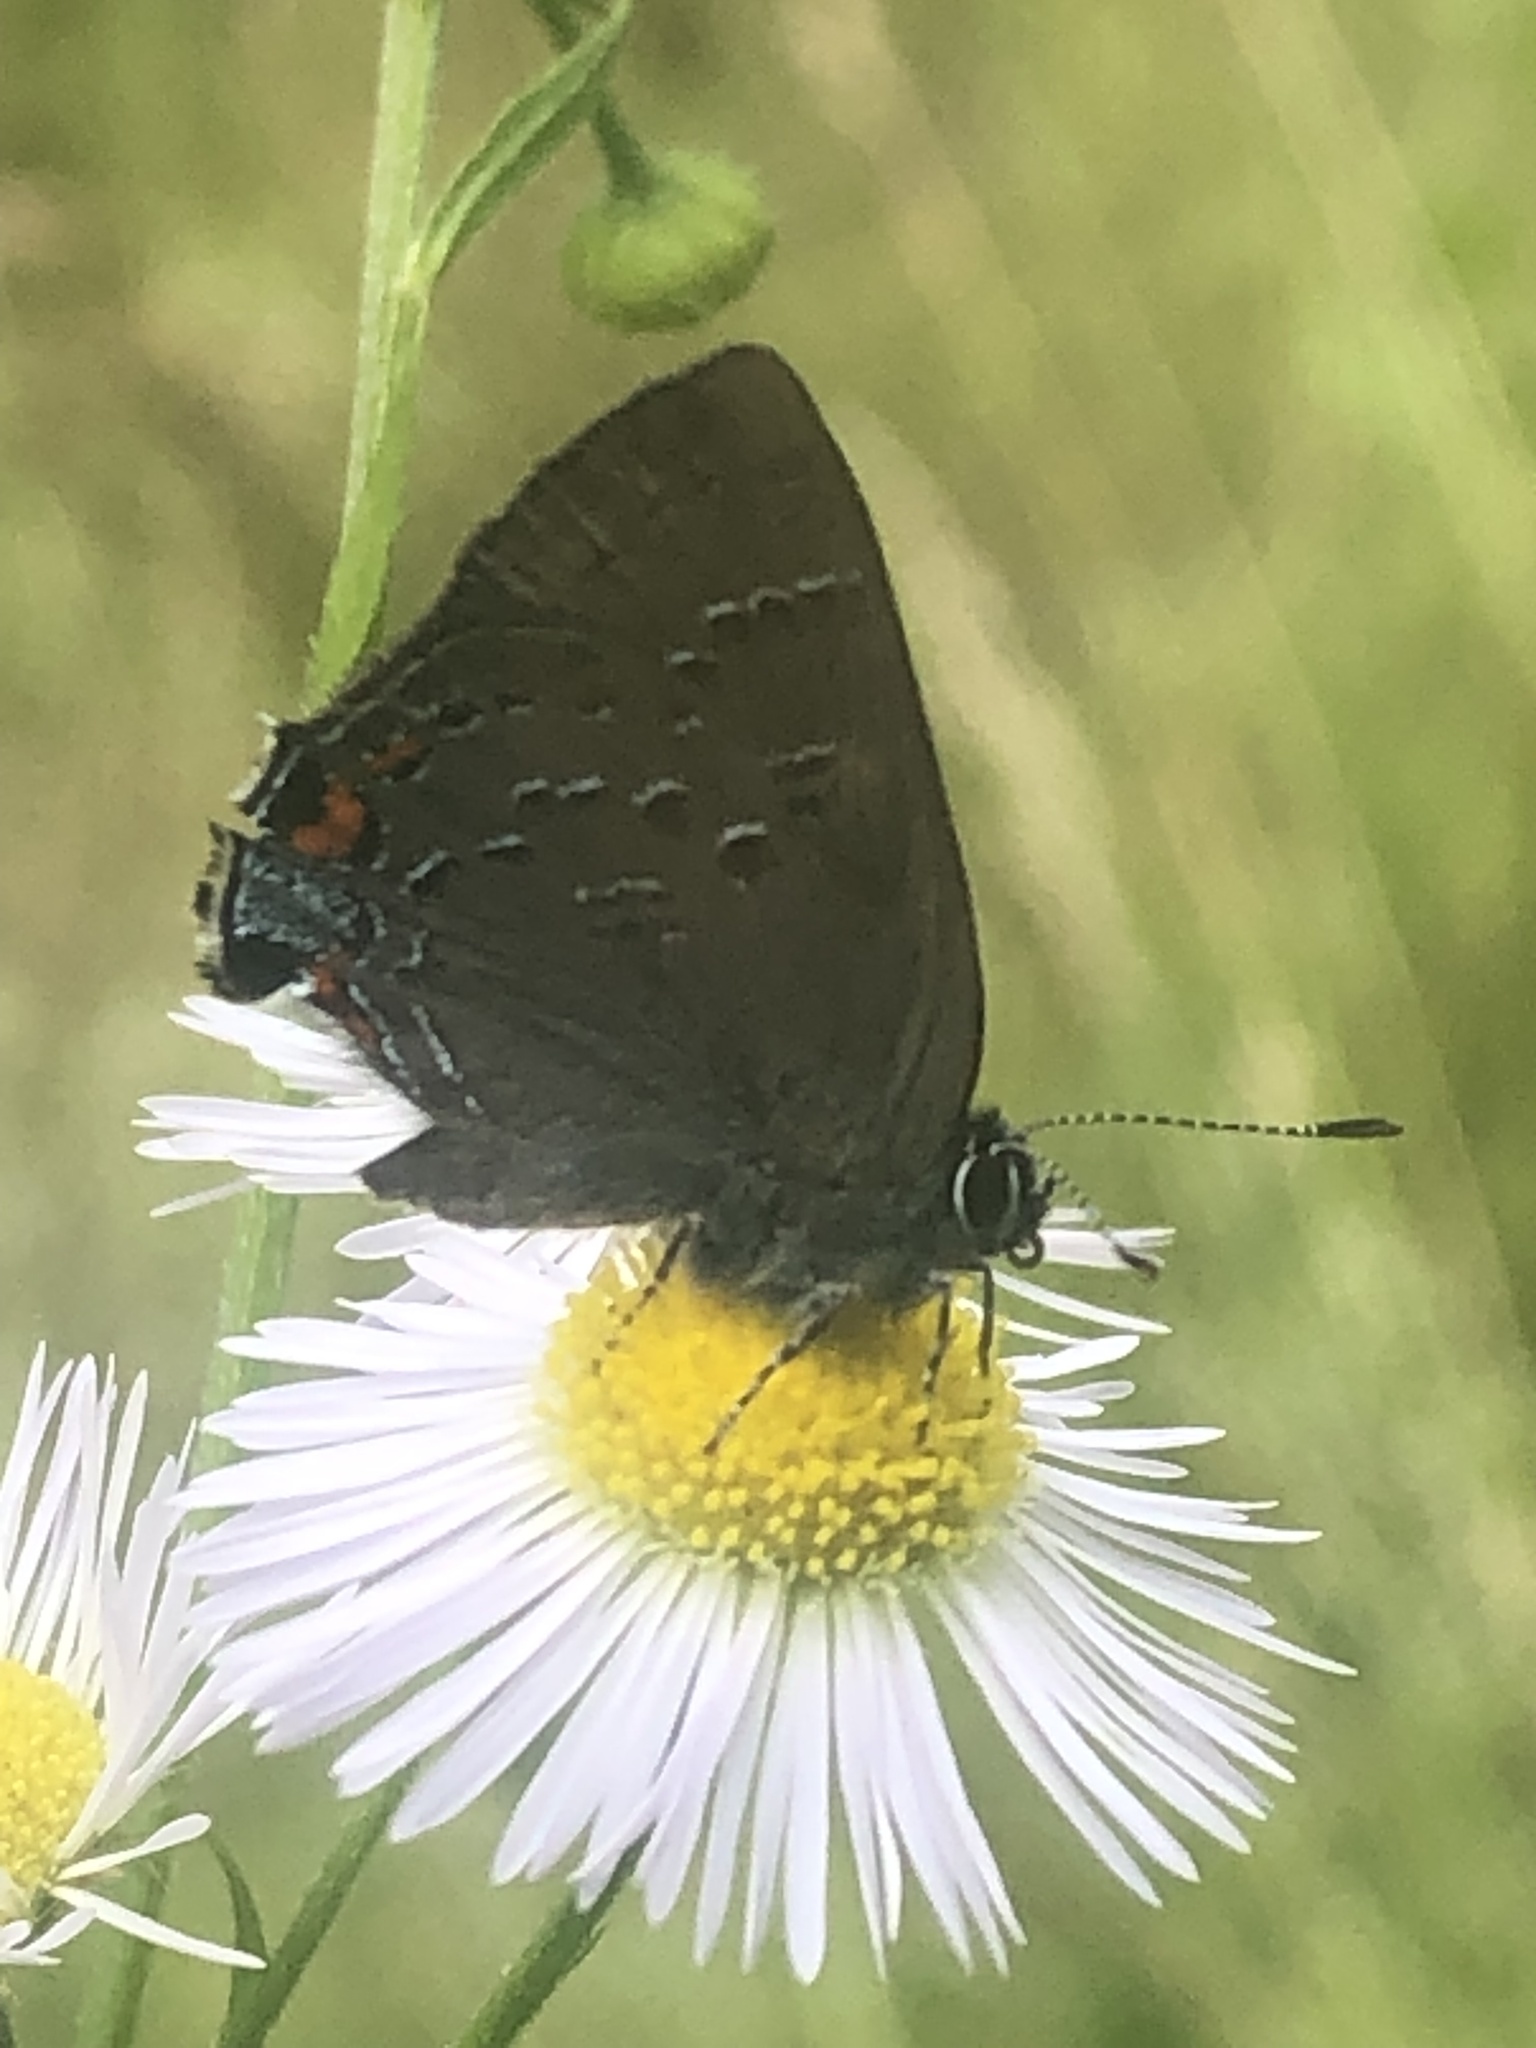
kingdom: Animalia
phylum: Arthropoda
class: Insecta
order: Lepidoptera
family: Lycaenidae
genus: Satyrium
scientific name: Satyrium calanus
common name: Banded hairstreak
